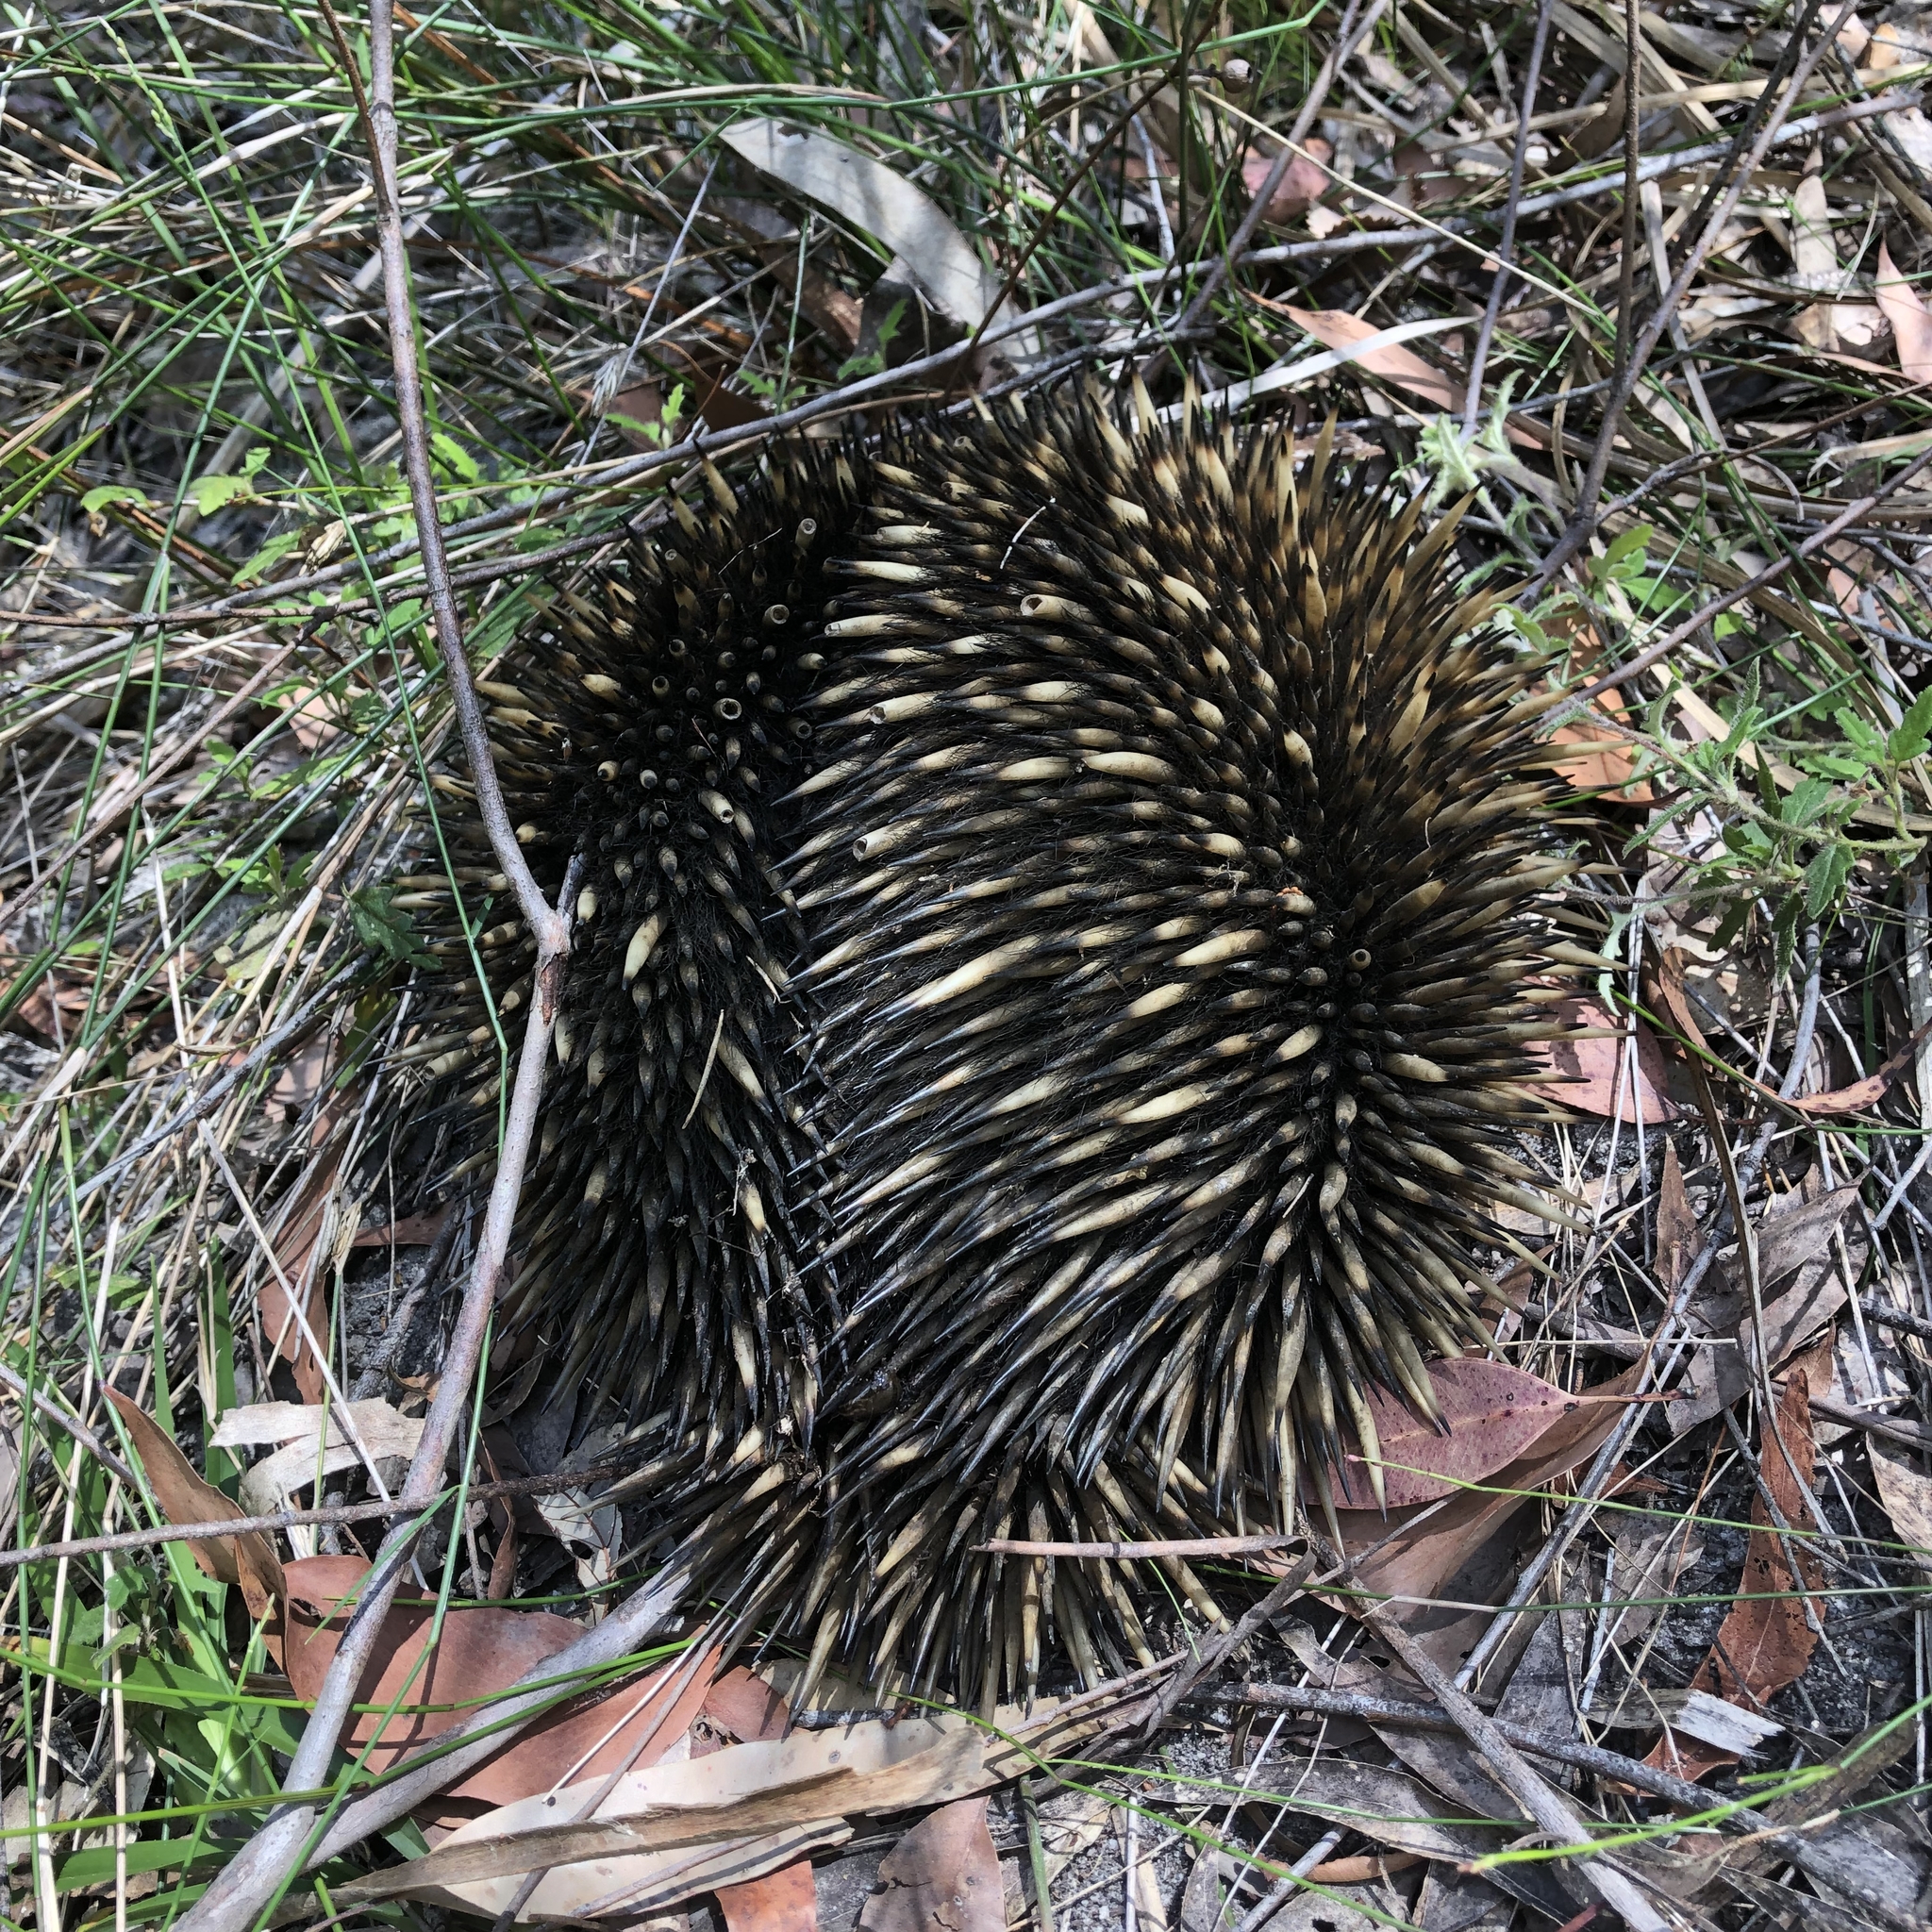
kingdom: Animalia
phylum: Chordata
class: Mammalia
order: Monotremata
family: Tachyglossidae
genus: Tachyglossus
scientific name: Tachyglossus aculeatus
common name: Short-beaked echidna
